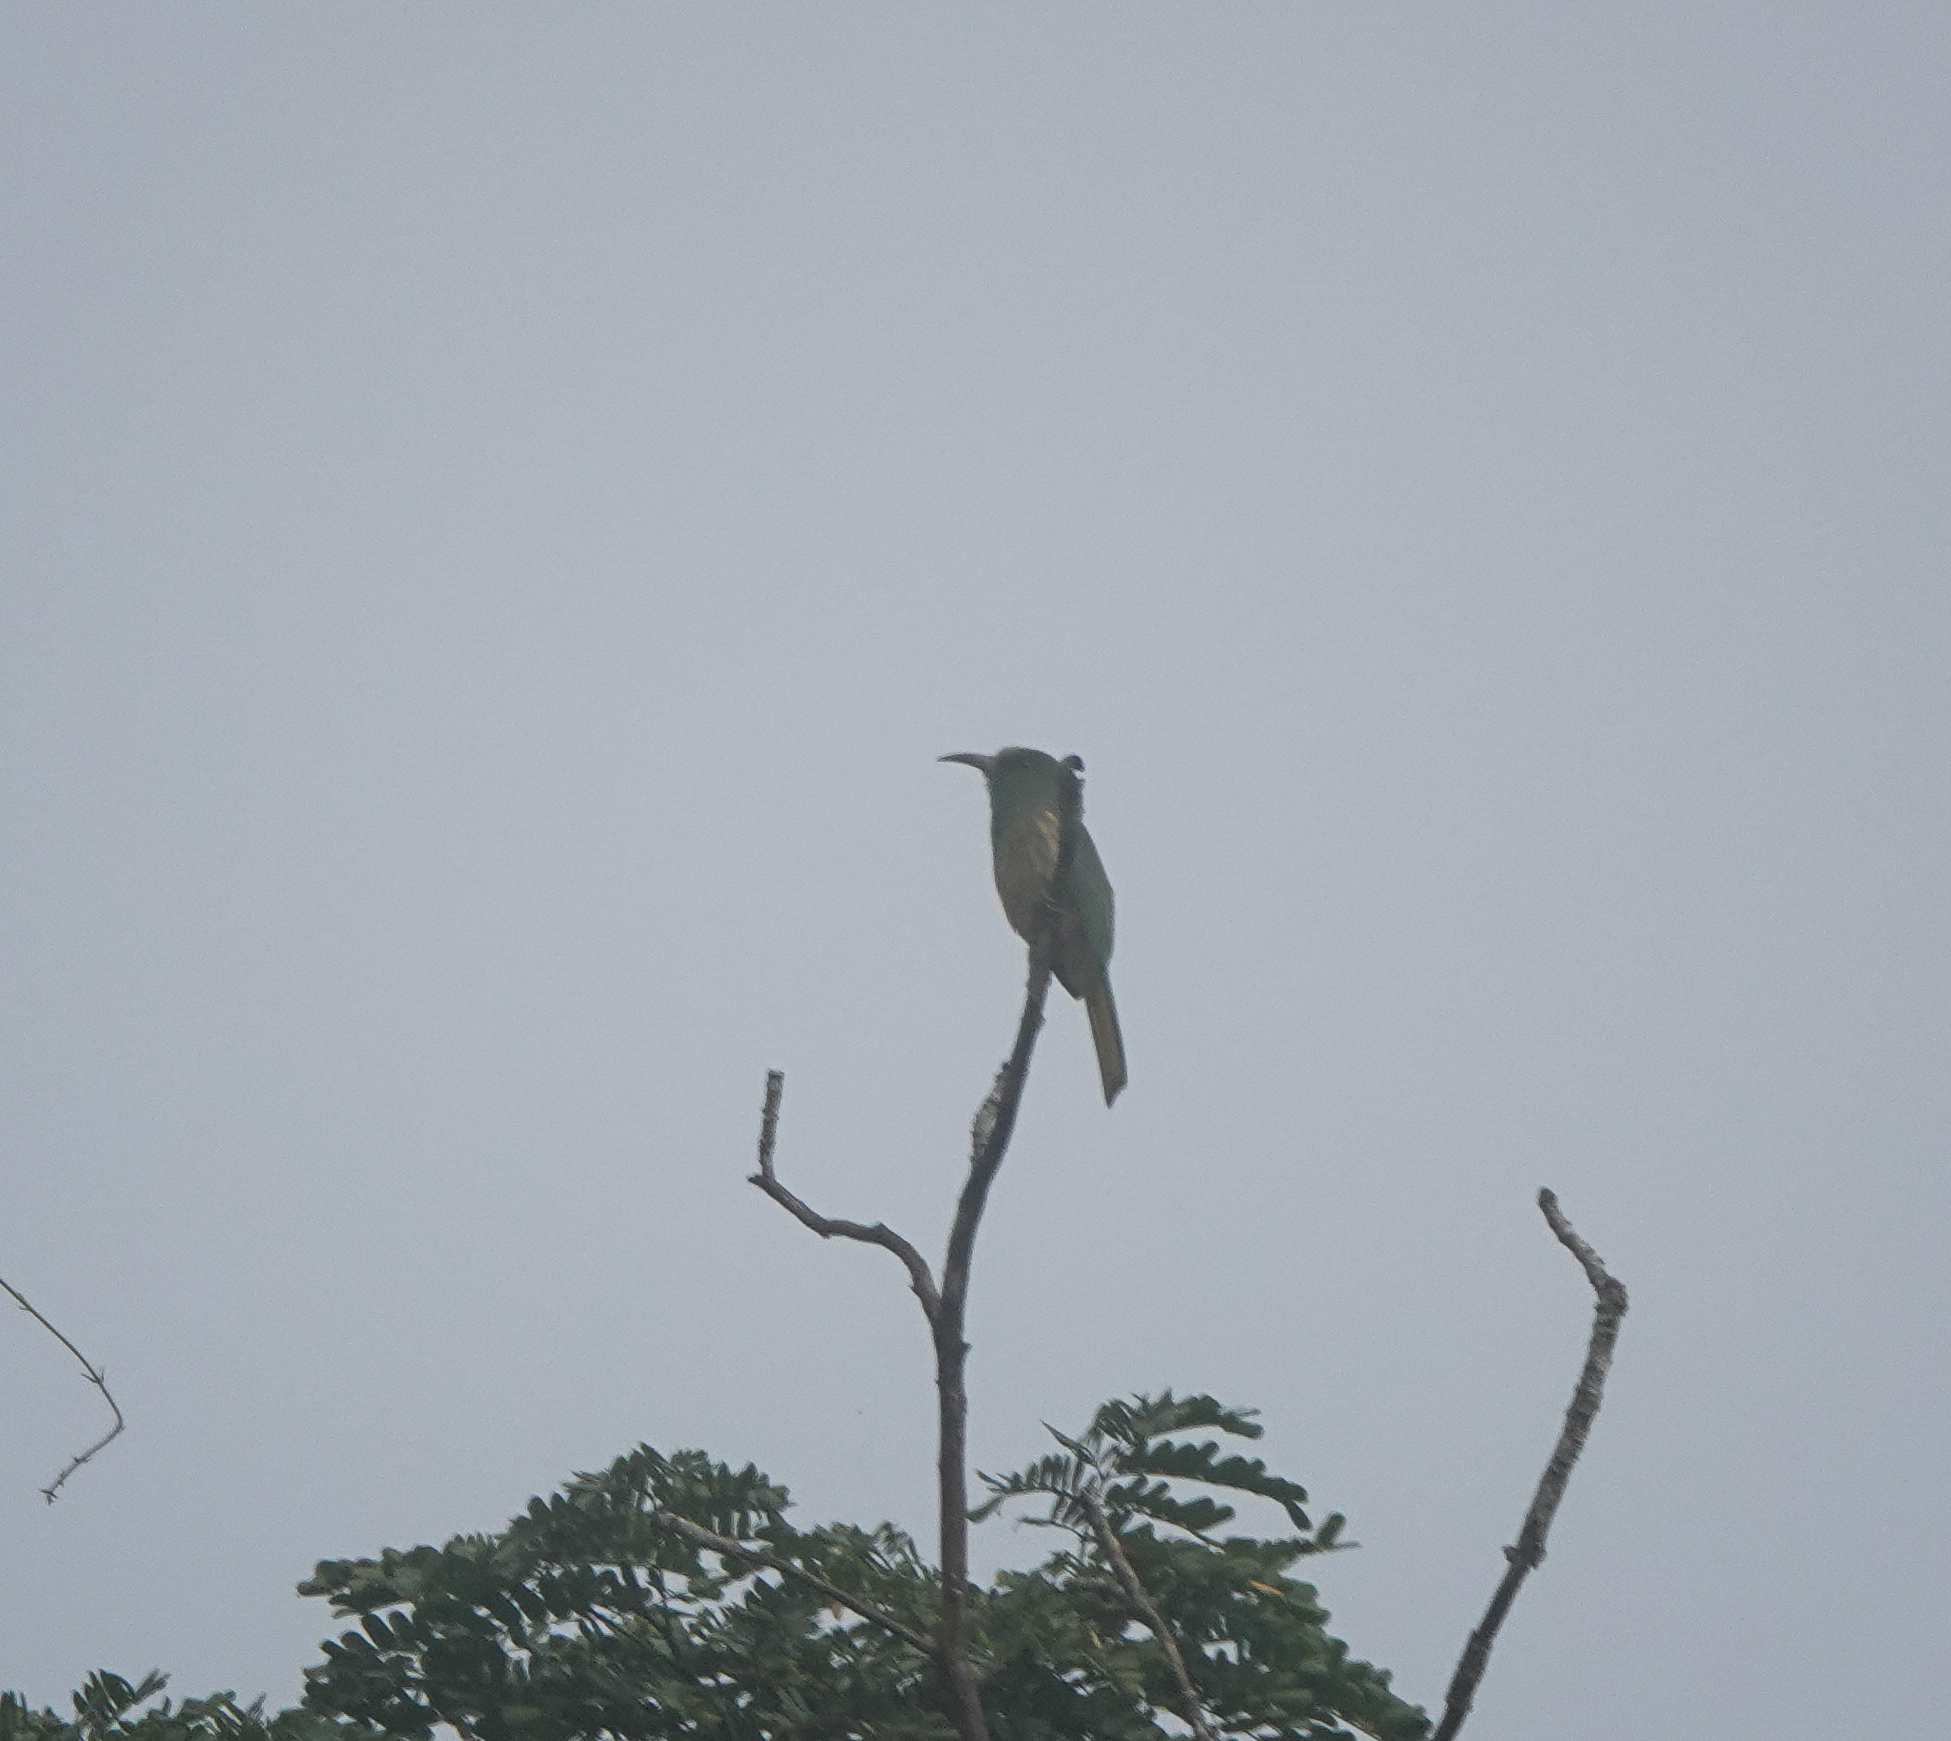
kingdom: Animalia
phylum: Chordata
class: Aves
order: Coraciiformes
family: Meropidae
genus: Nyctyornis
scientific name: Nyctyornis athertoni
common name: Blue-bearded bee-eater
